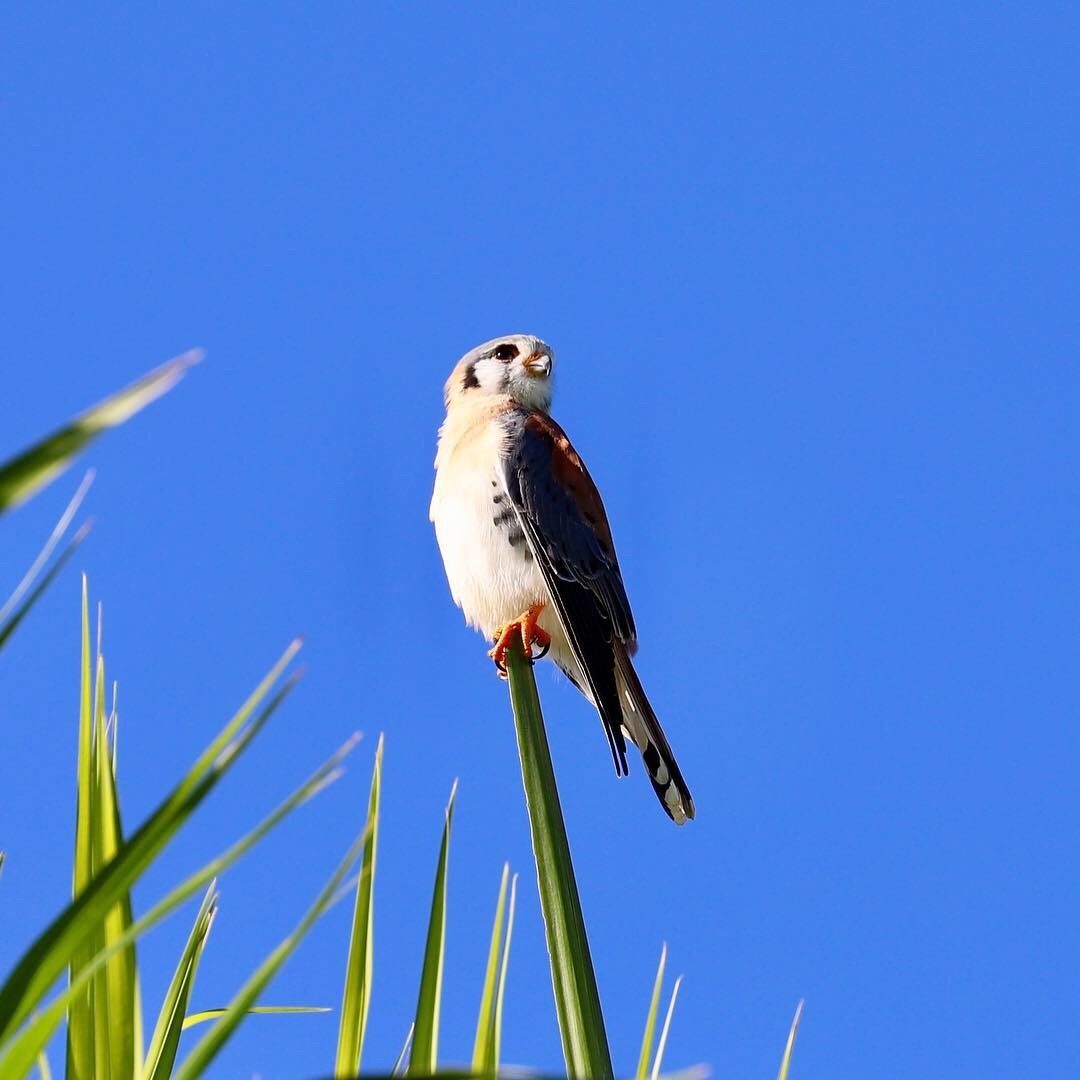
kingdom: Animalia
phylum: Chordata
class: Aves
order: Falconiformes
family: Falconidae
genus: Falco
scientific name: Falco sparverius
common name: American kestrel
